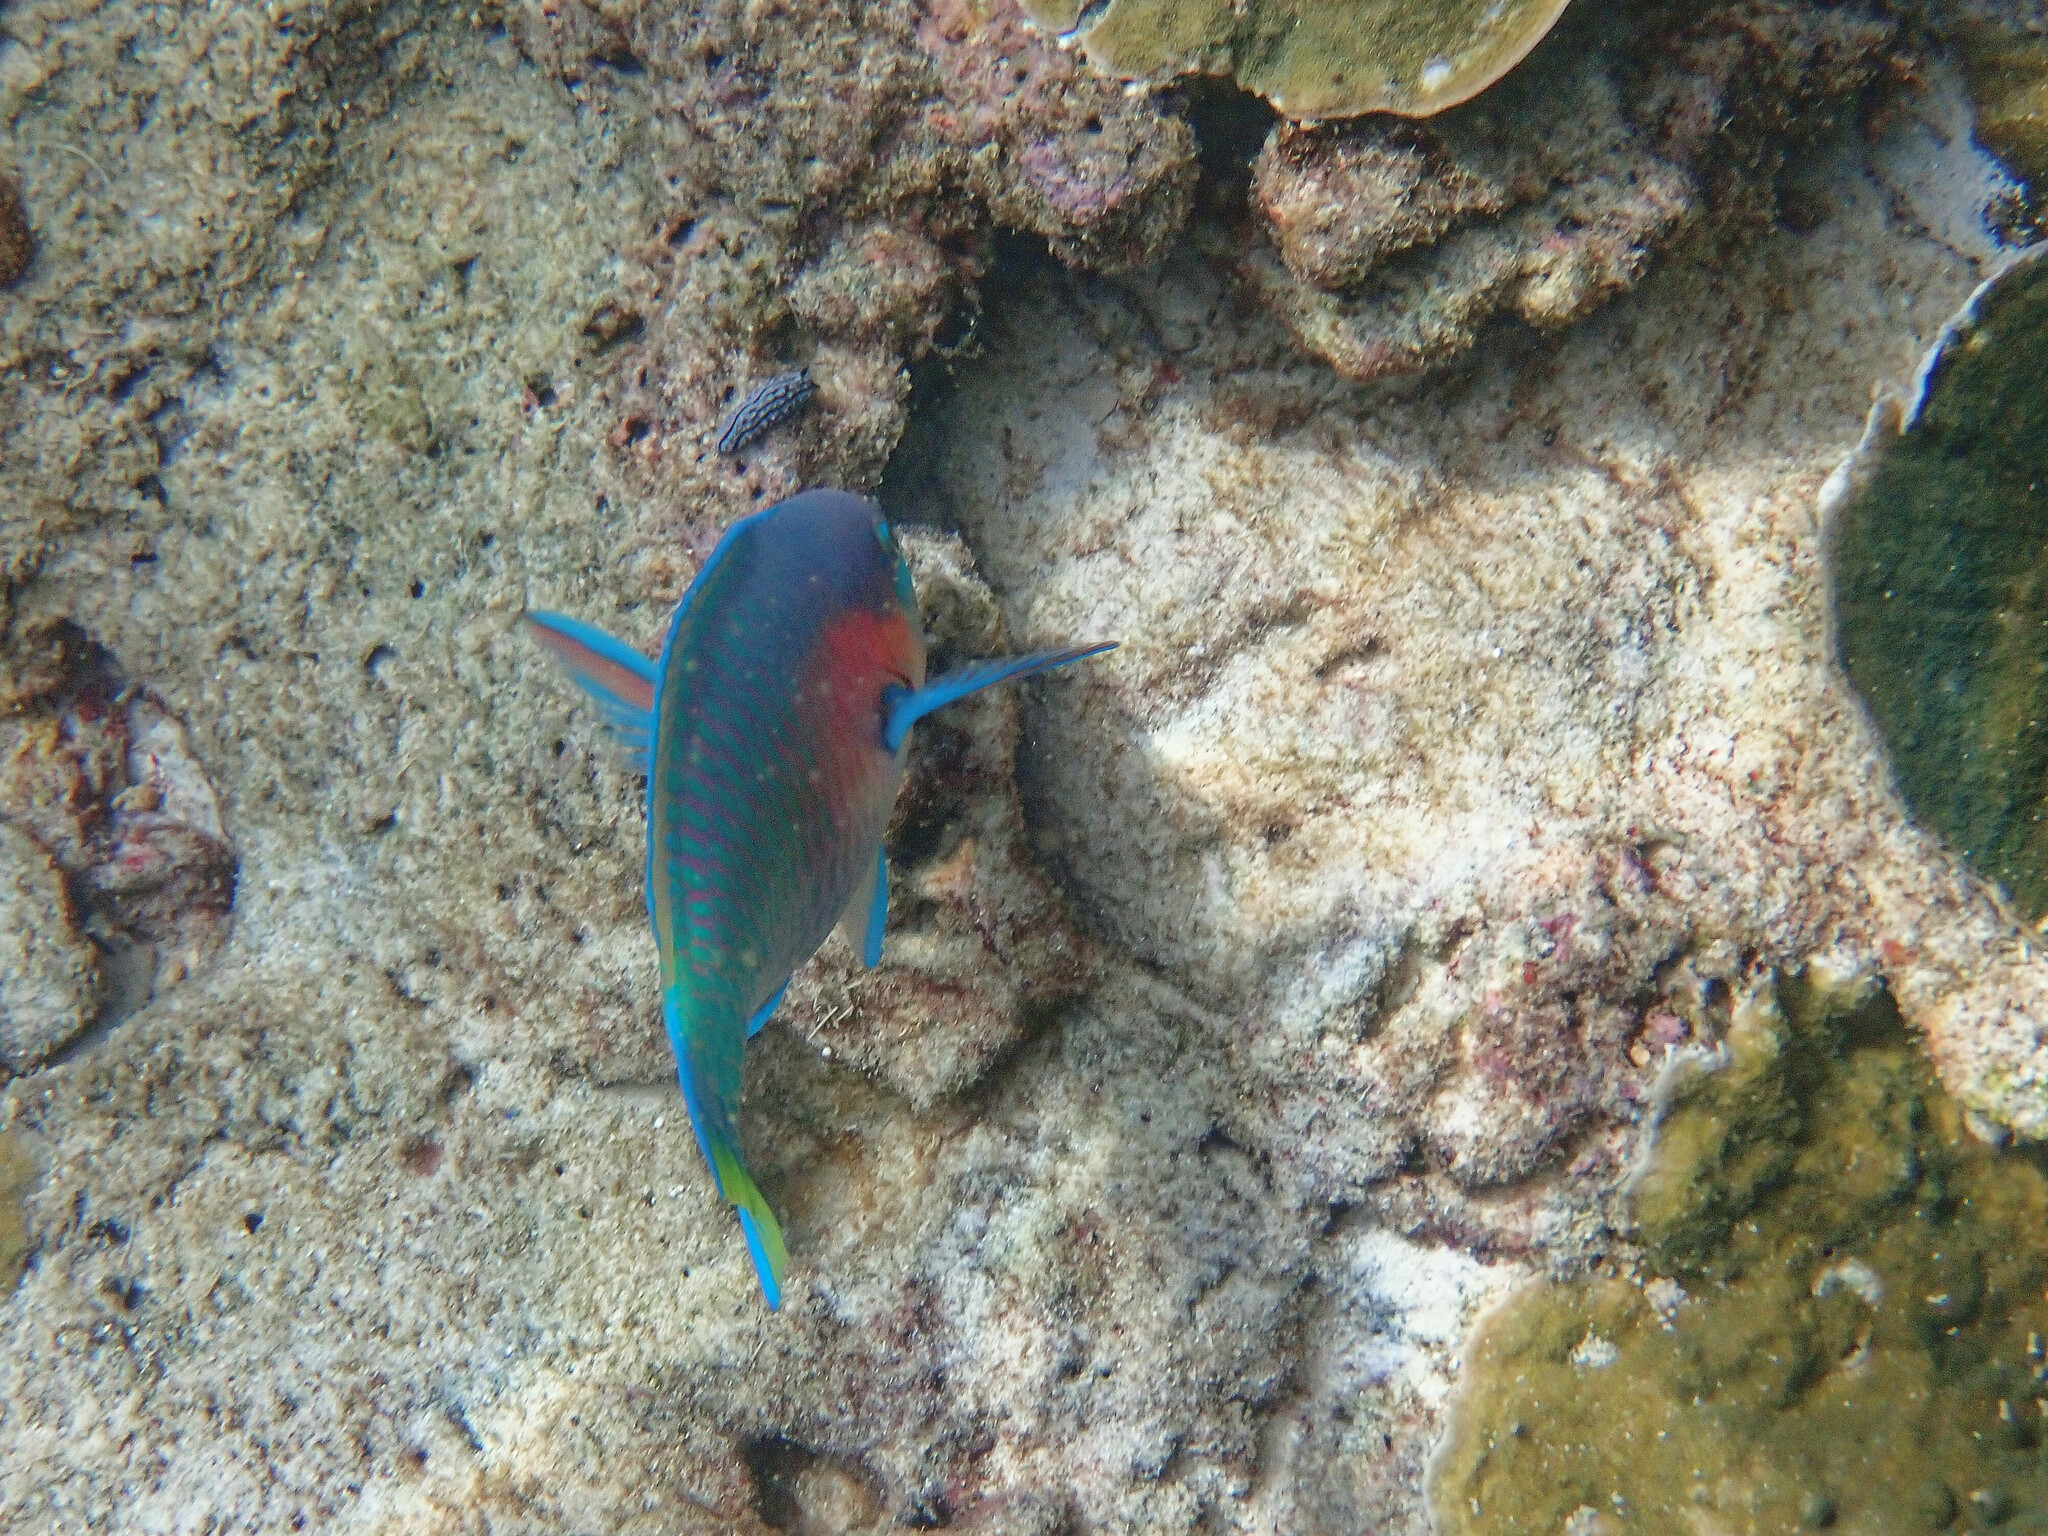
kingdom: Animalia
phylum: Chordata
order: Perciformes
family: Scaridae
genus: Scarus
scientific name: Scarus quoyi
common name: Quoy's parrotfish
